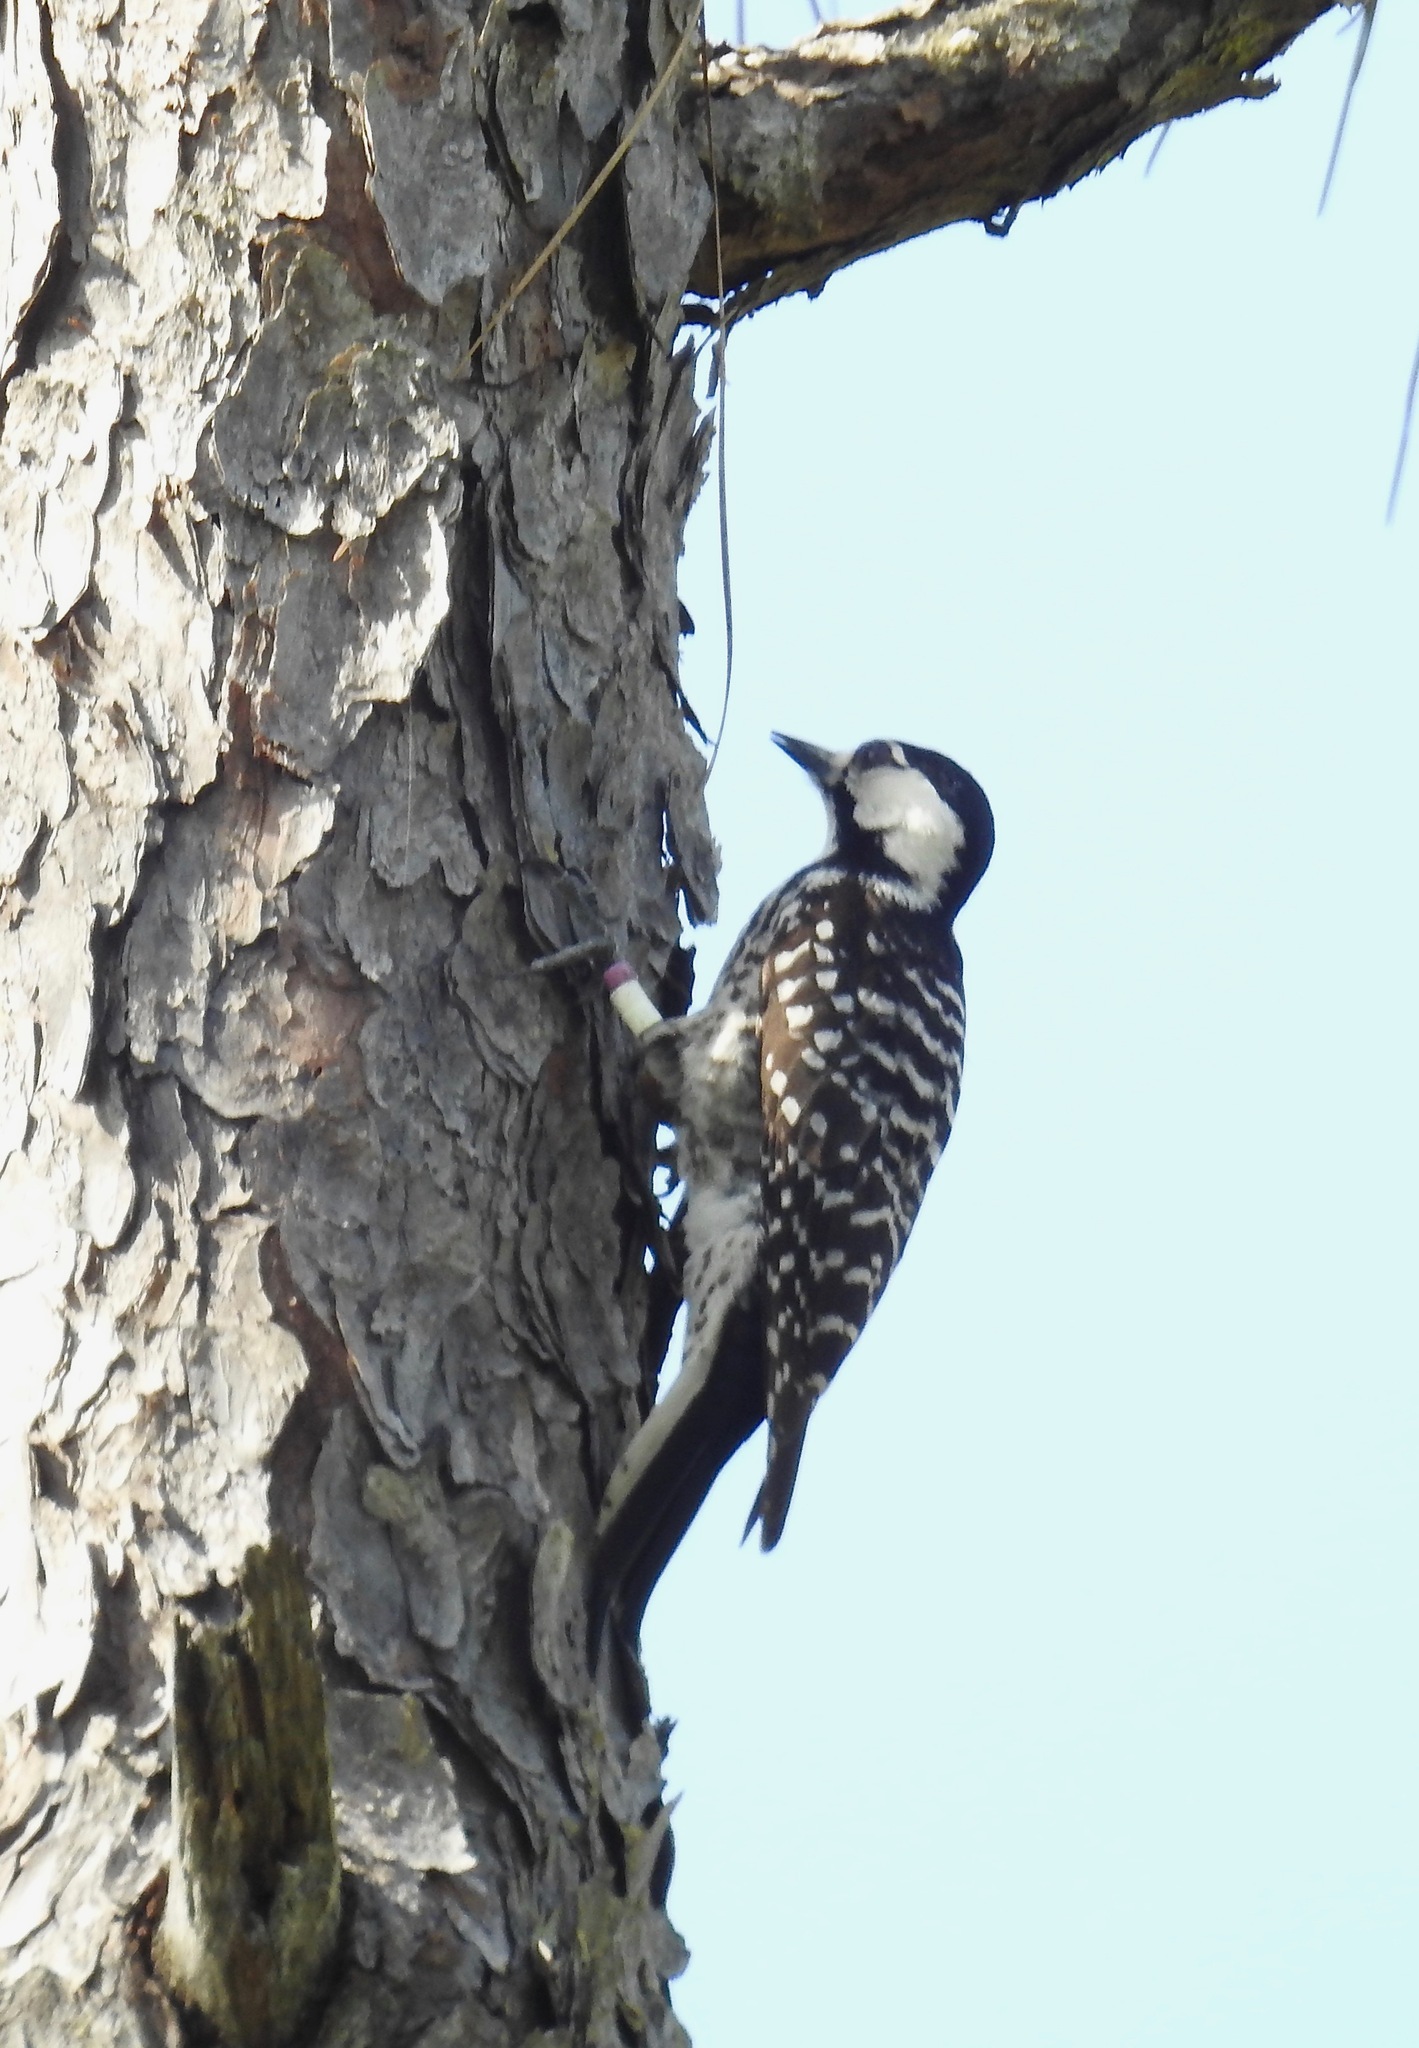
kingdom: Animalia
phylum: Chordata
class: Aves
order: Piciformes
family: Picidae
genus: Leuconotopicus
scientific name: Leuconotopicus borealis
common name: Red-cockaded woodpecker
